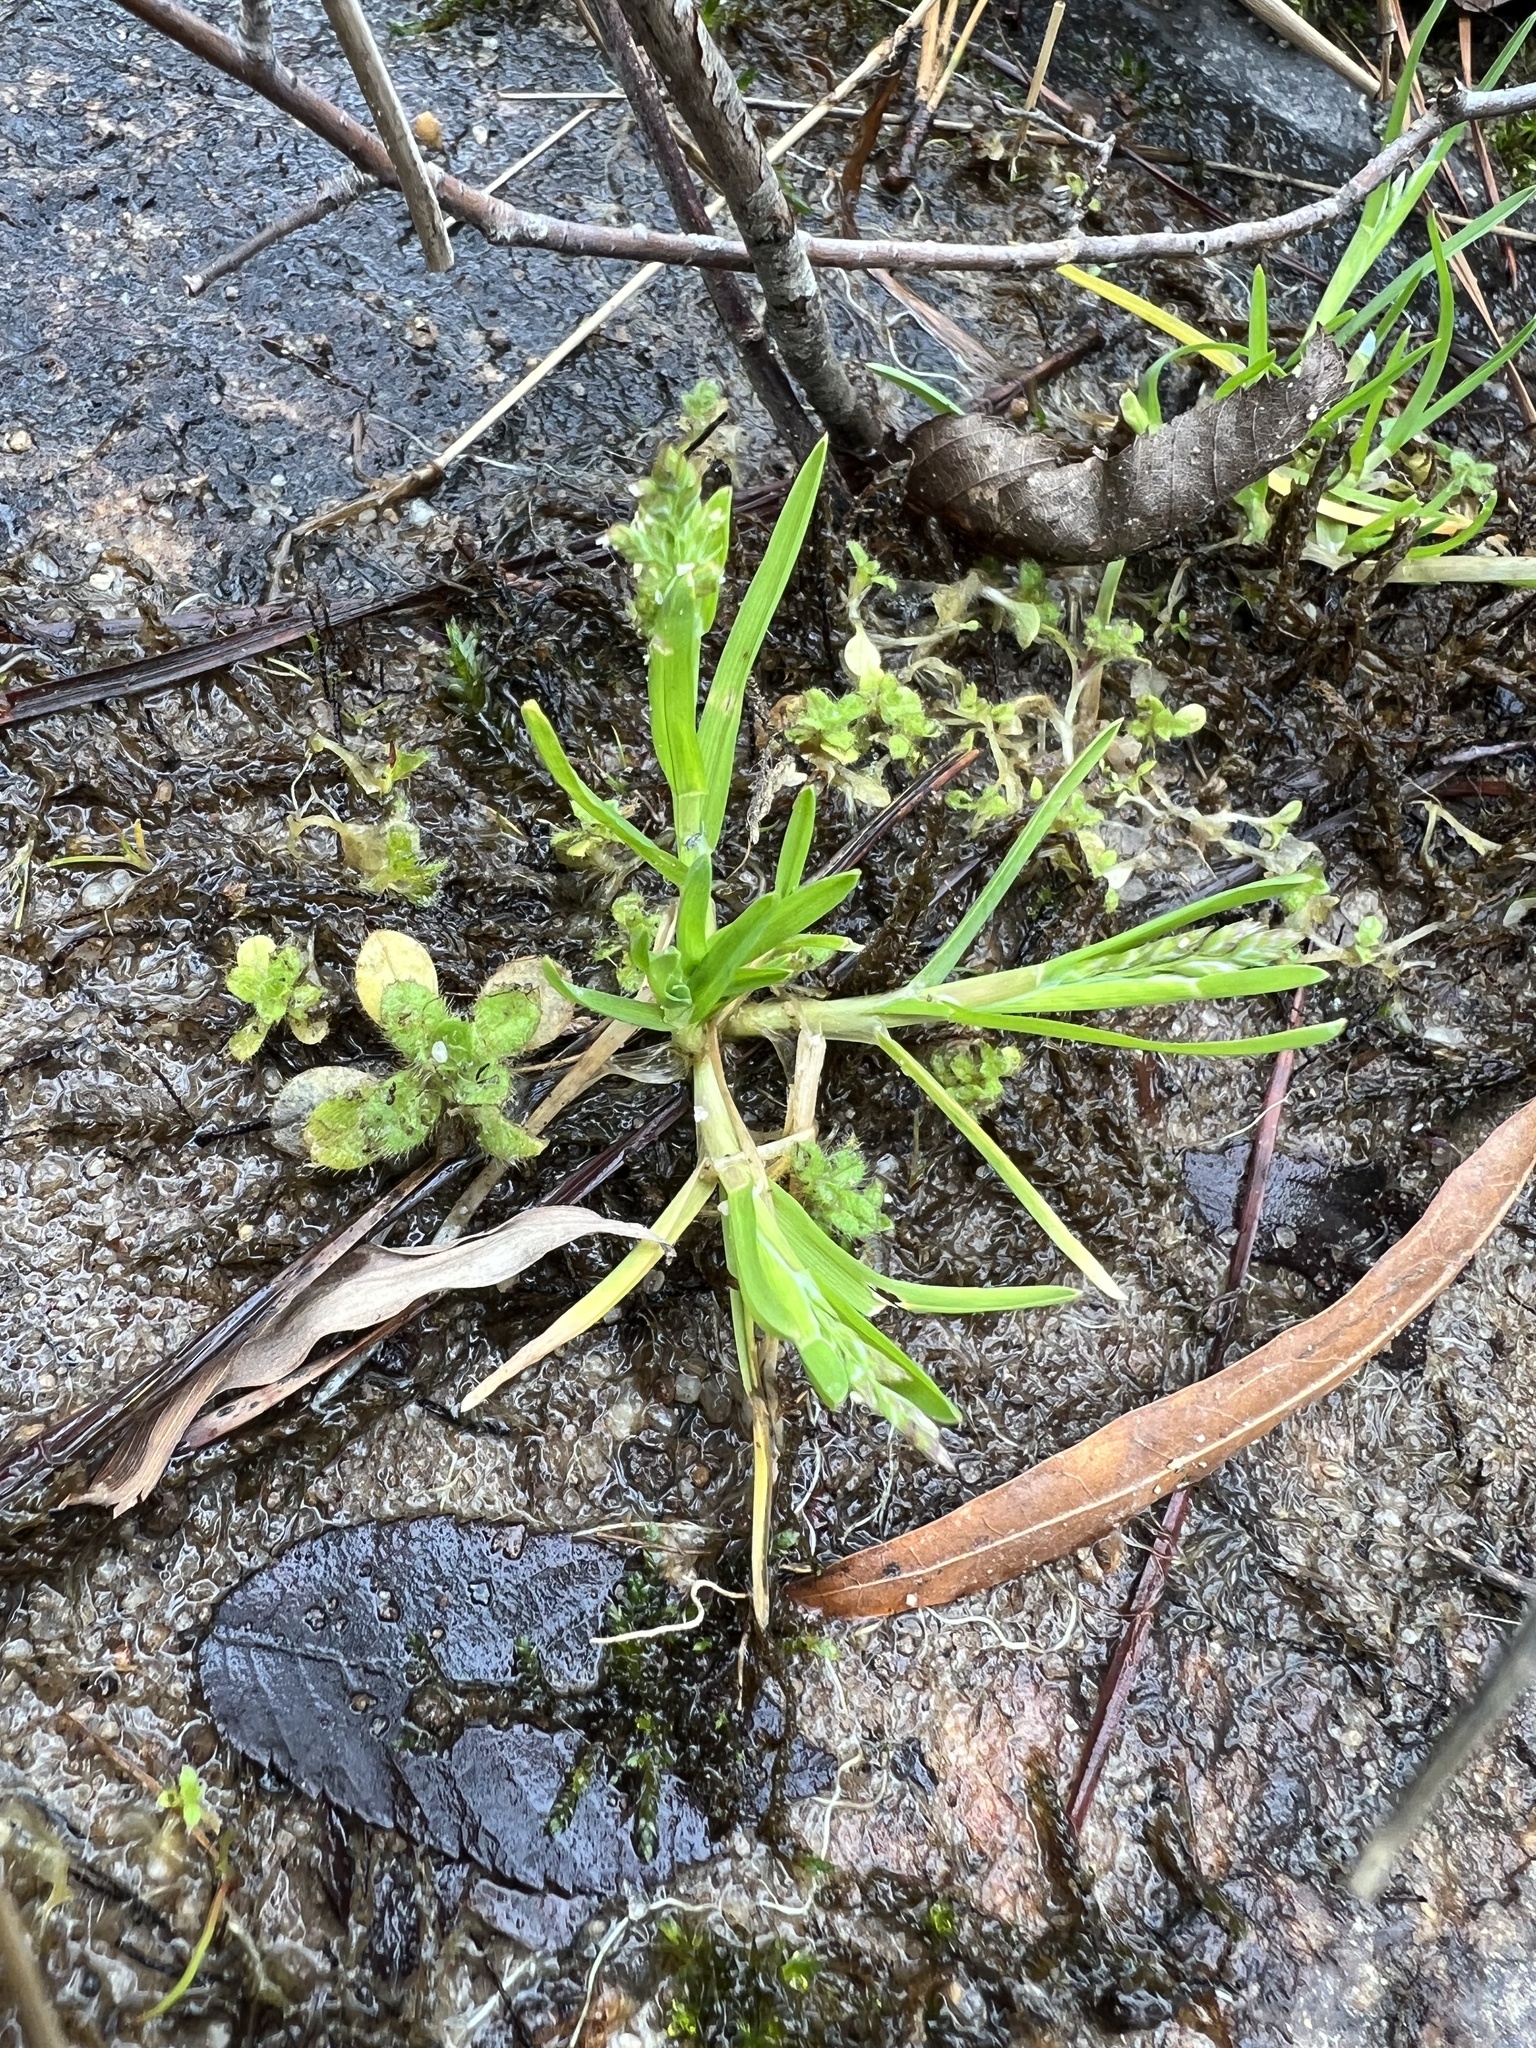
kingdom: Plantae
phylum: Tracheophyta
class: Liliopsida
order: Poales
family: Poaceae
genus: Poa
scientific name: Poa annua
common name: Annual bluegrass
